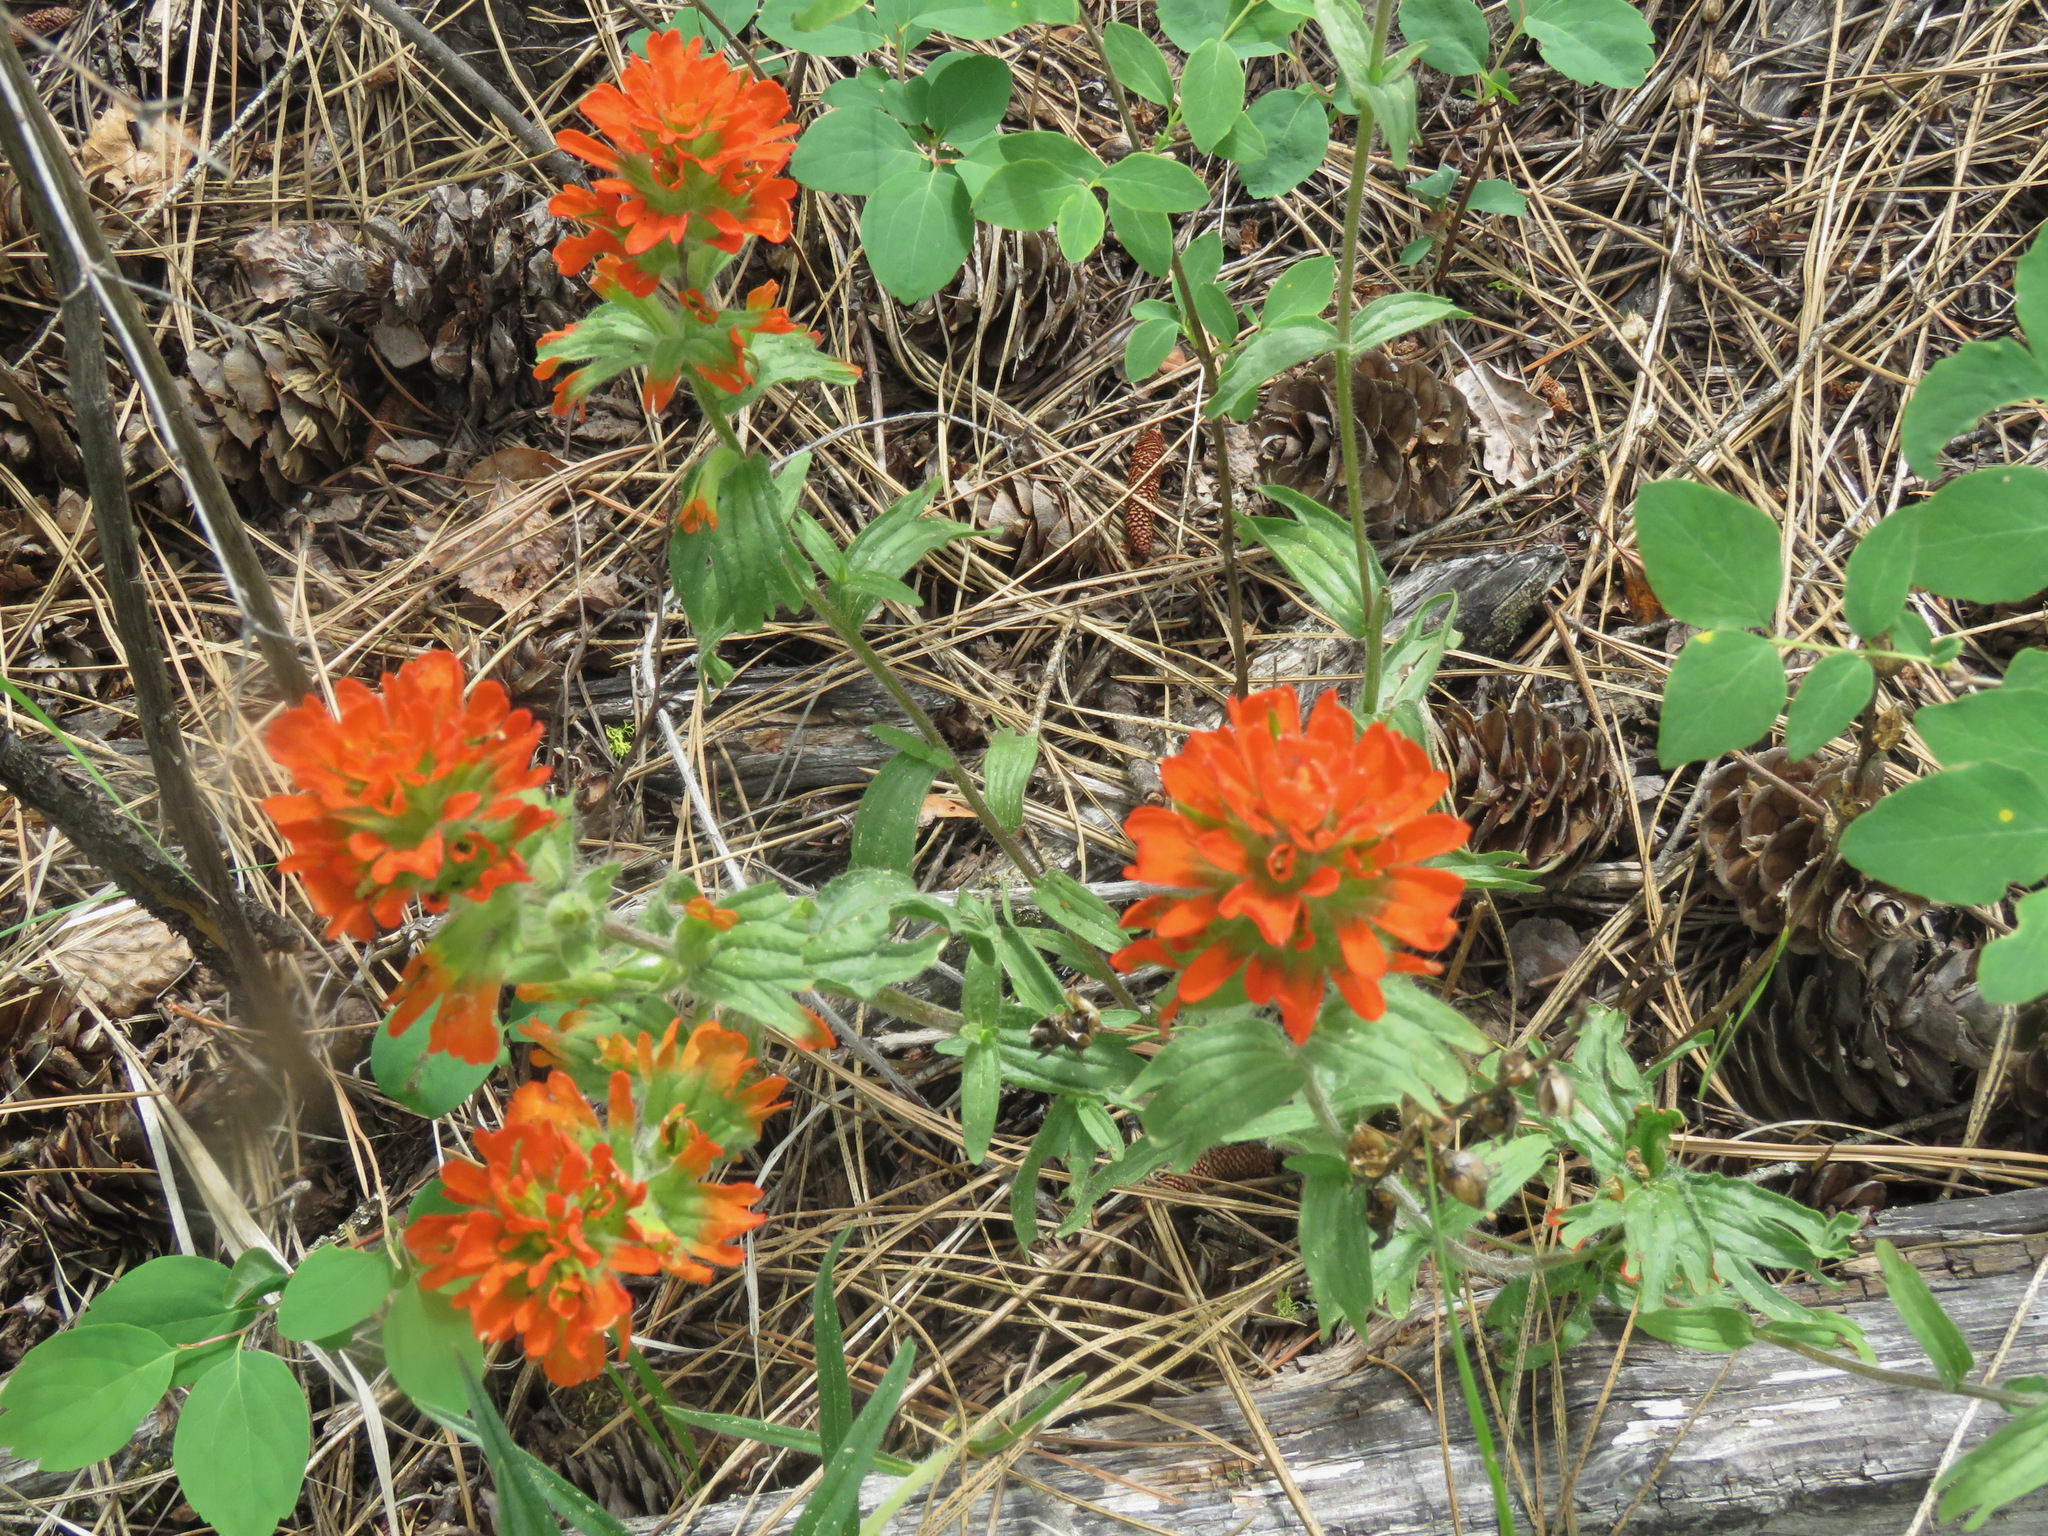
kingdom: Plantae
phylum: Tracheophyta
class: Magnoliopsida
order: Lamiales
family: Orobanchaceae
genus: Castilleja
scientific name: Castilleja hispida
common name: Bristly paintbrush
